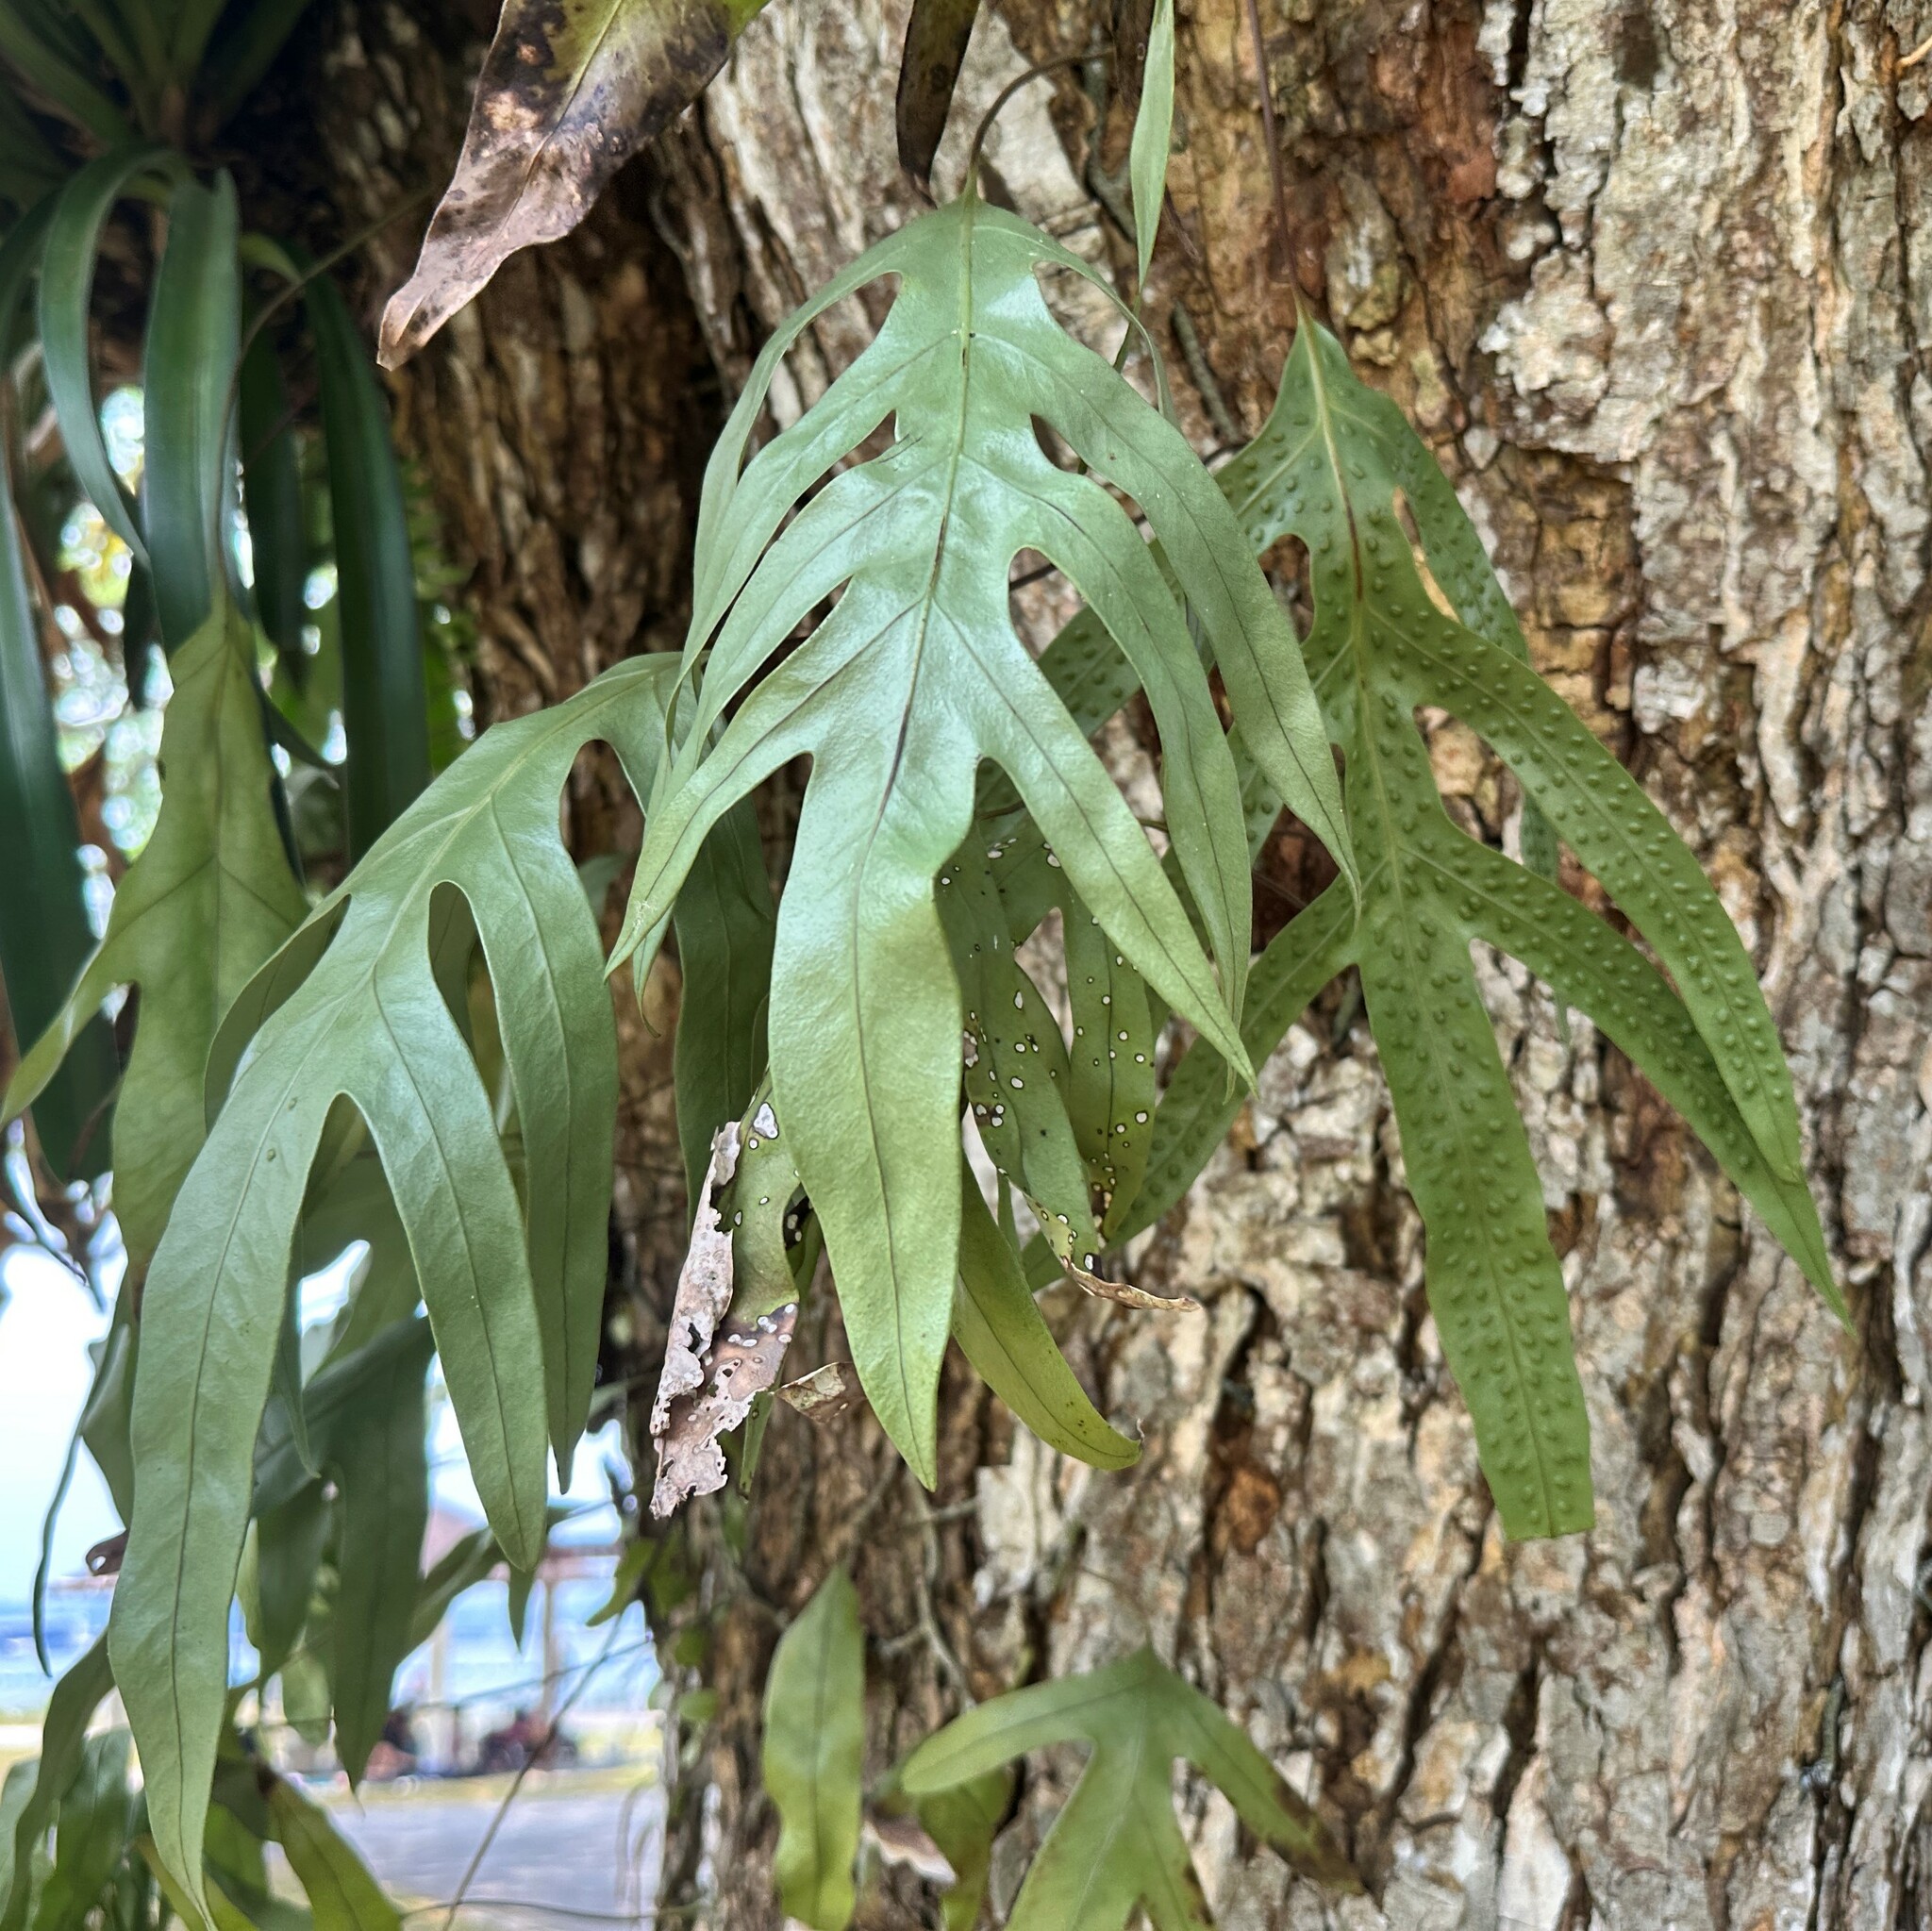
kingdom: Plantae
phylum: Tracheophyta
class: Polypodiopsida
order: Polypodiales
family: Polypodiaceae
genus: Microsorum
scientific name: Microsorum scolopendria
